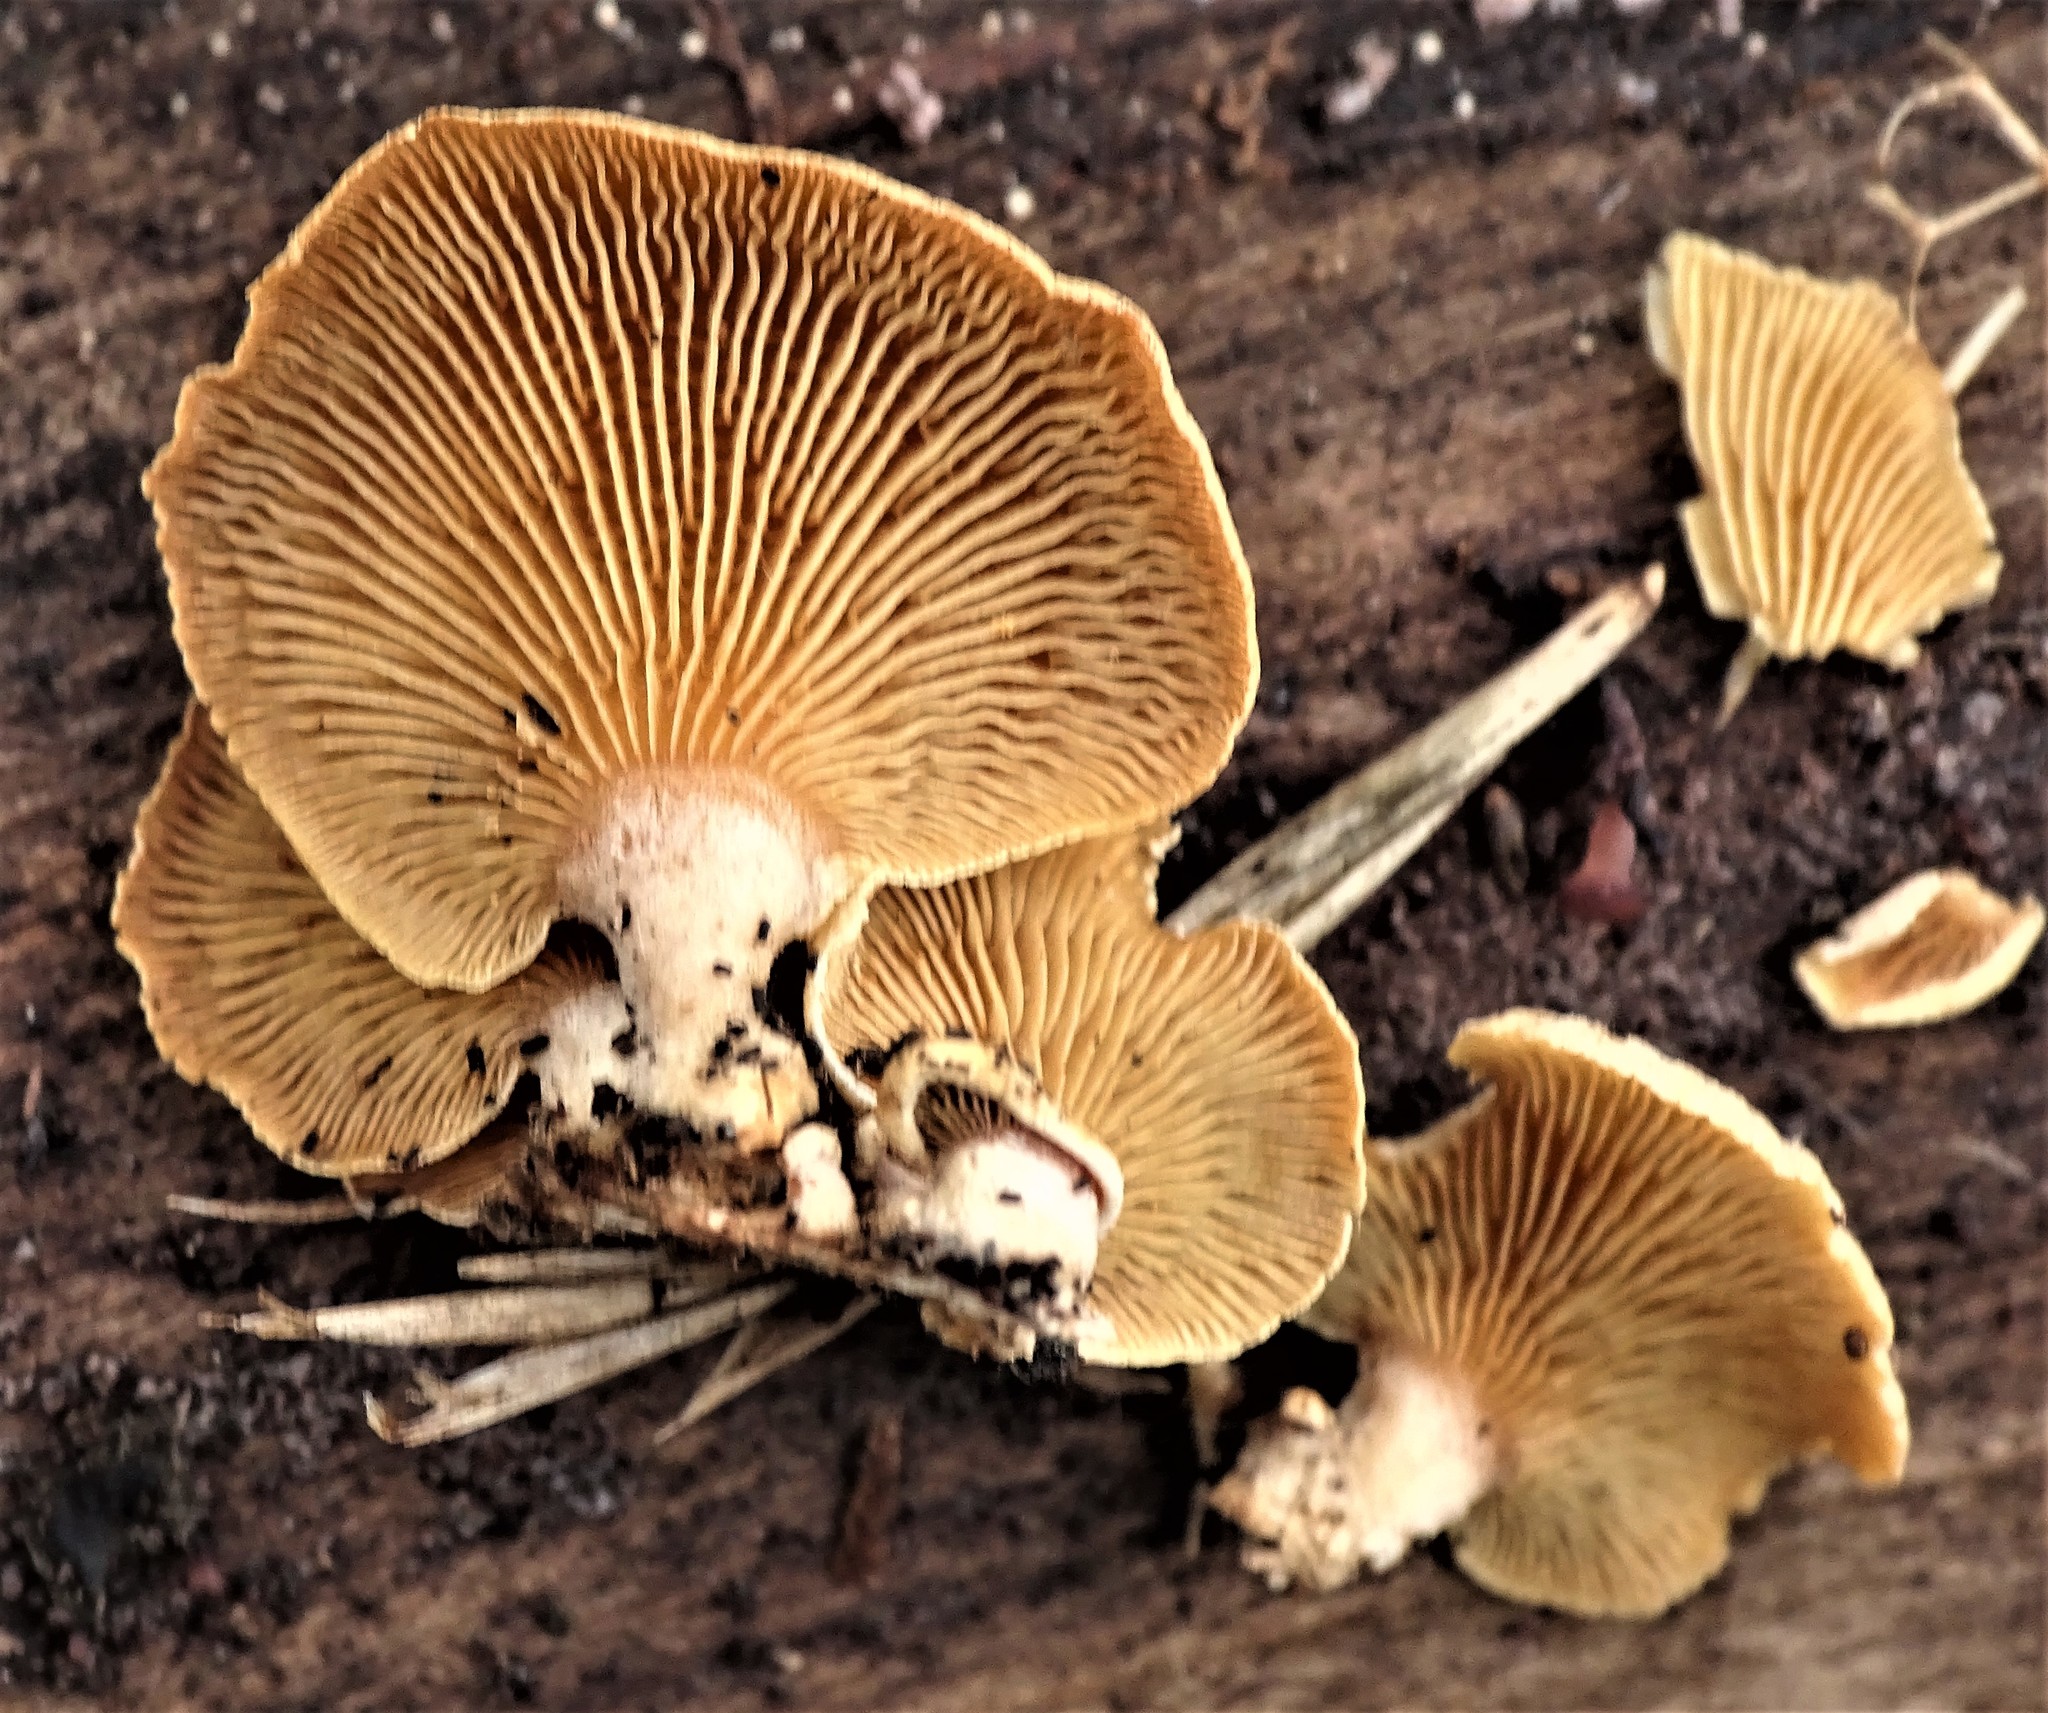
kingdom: Fungi
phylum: Basidiomycota
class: Agaricomycetes
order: Agaricales
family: Mycenaceae
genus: Panellus
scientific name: Panellus stipticus
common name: Bitter oysterling
